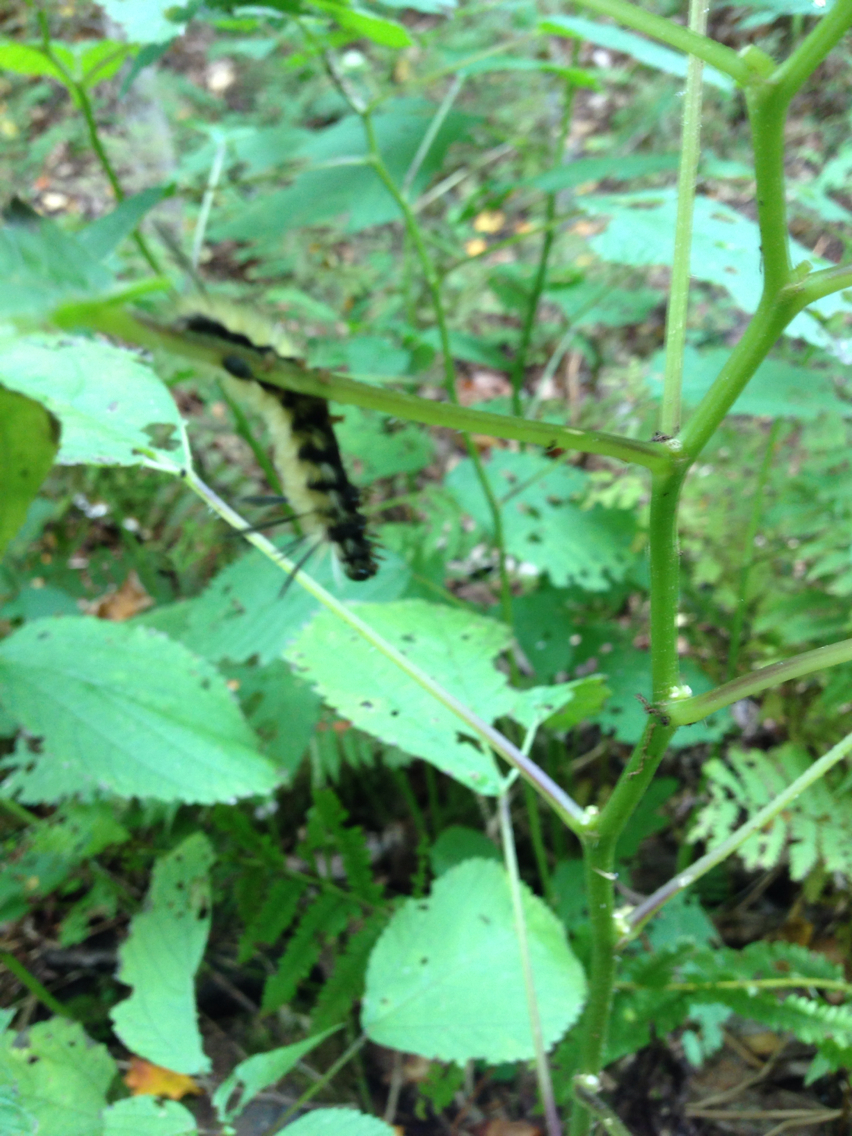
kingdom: Animalia
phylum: Arthropoda
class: Insecta
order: Lepidoptera
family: Noctuidae
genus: Acronicta
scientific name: Acronicta americana
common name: American dagger
